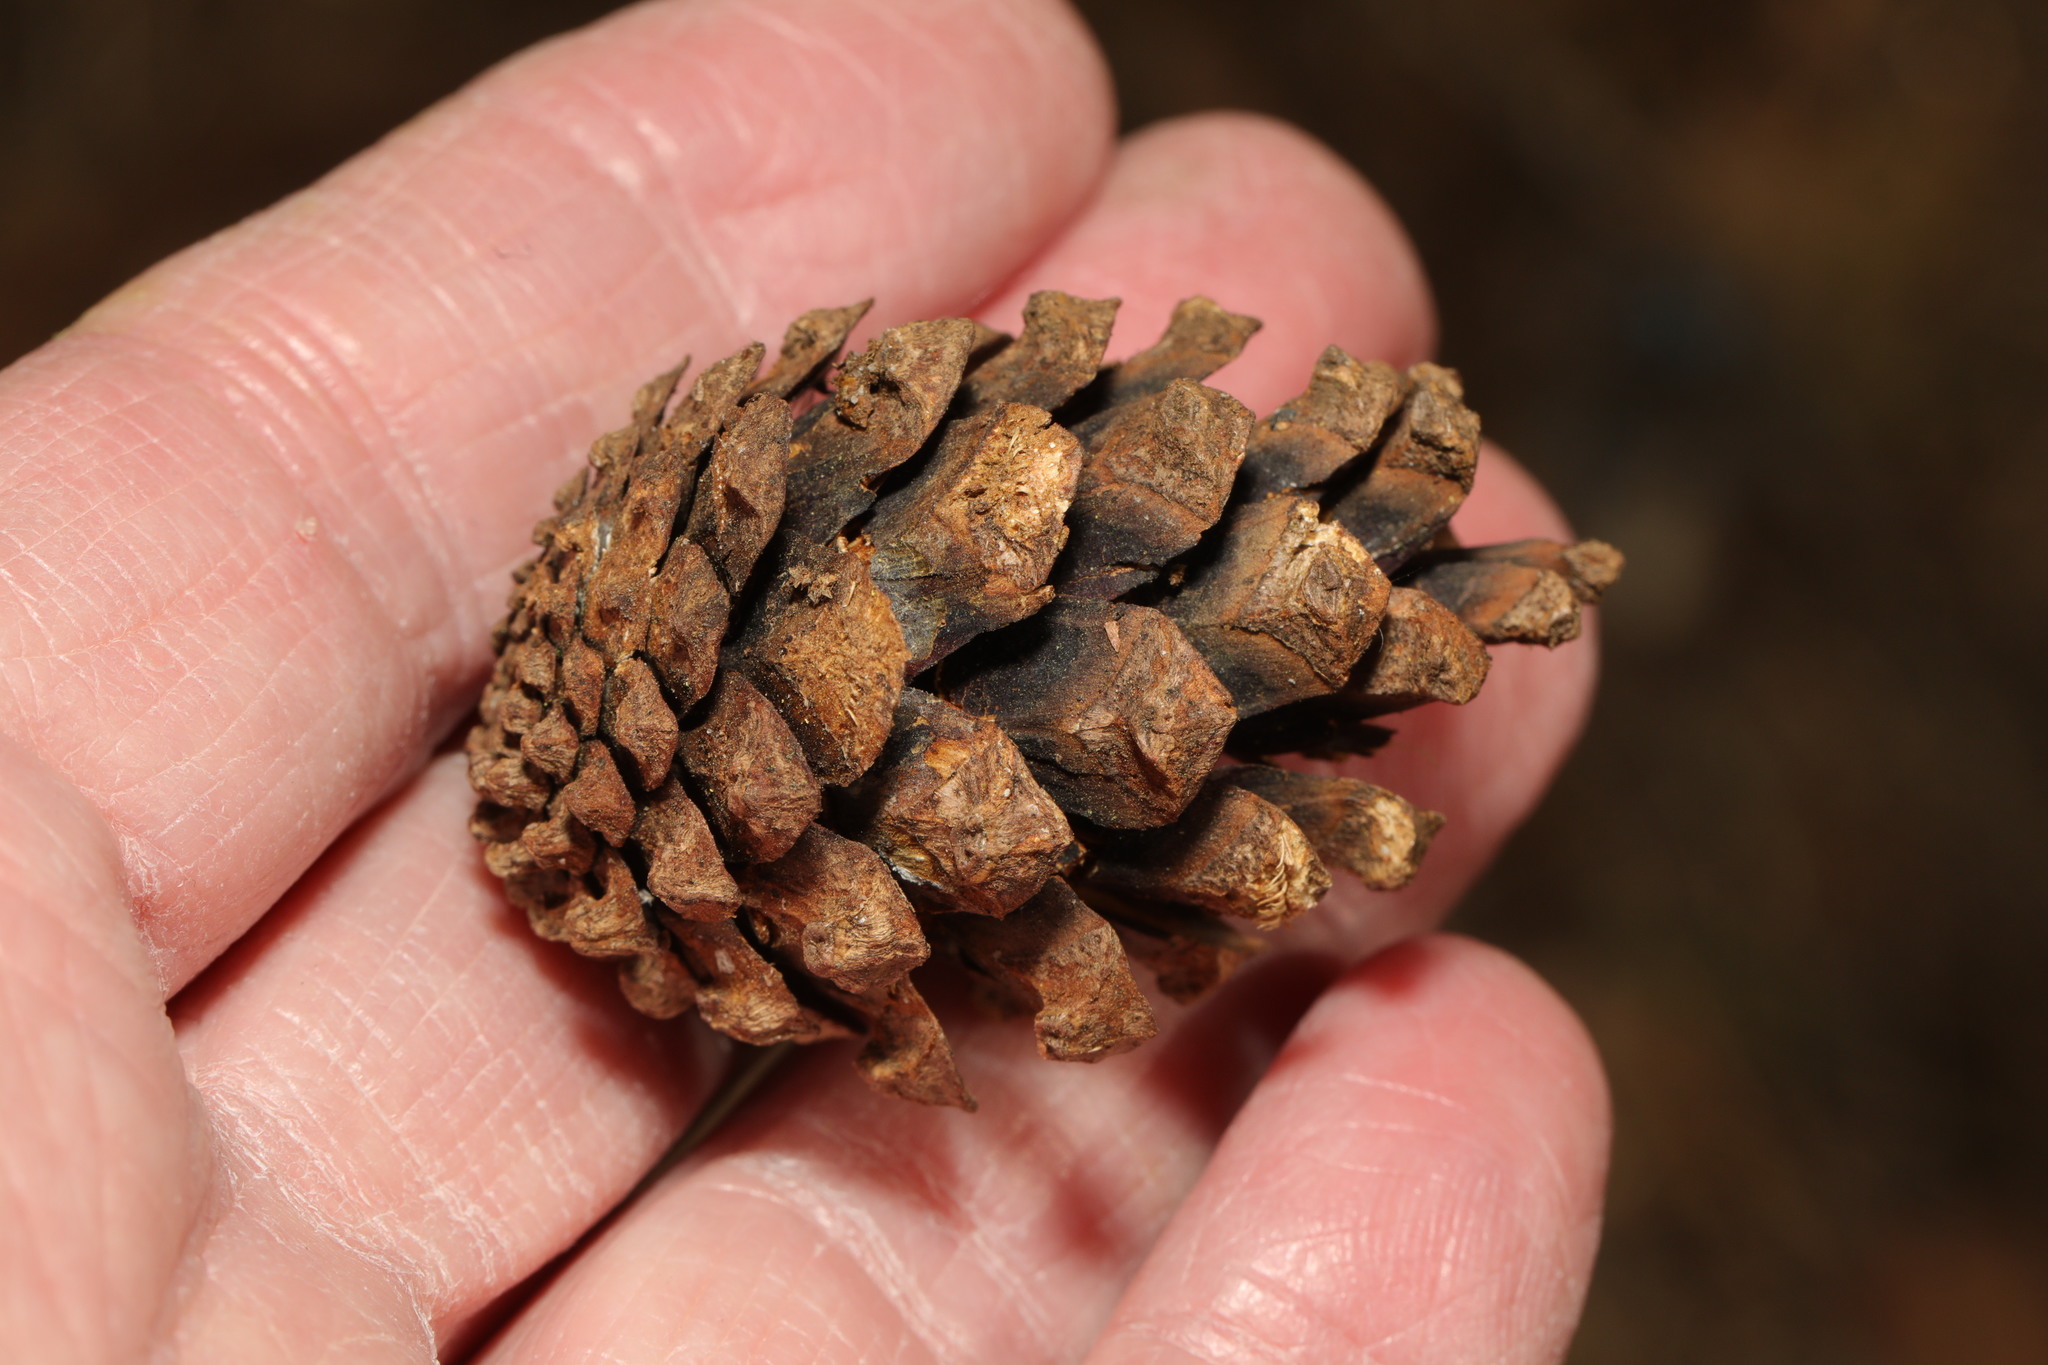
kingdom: Plantae
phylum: Tracheophyta
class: Pinopsida
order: Pinales
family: Pinaceae
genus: Pinus
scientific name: Pinus sylvestris
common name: Scots pine
